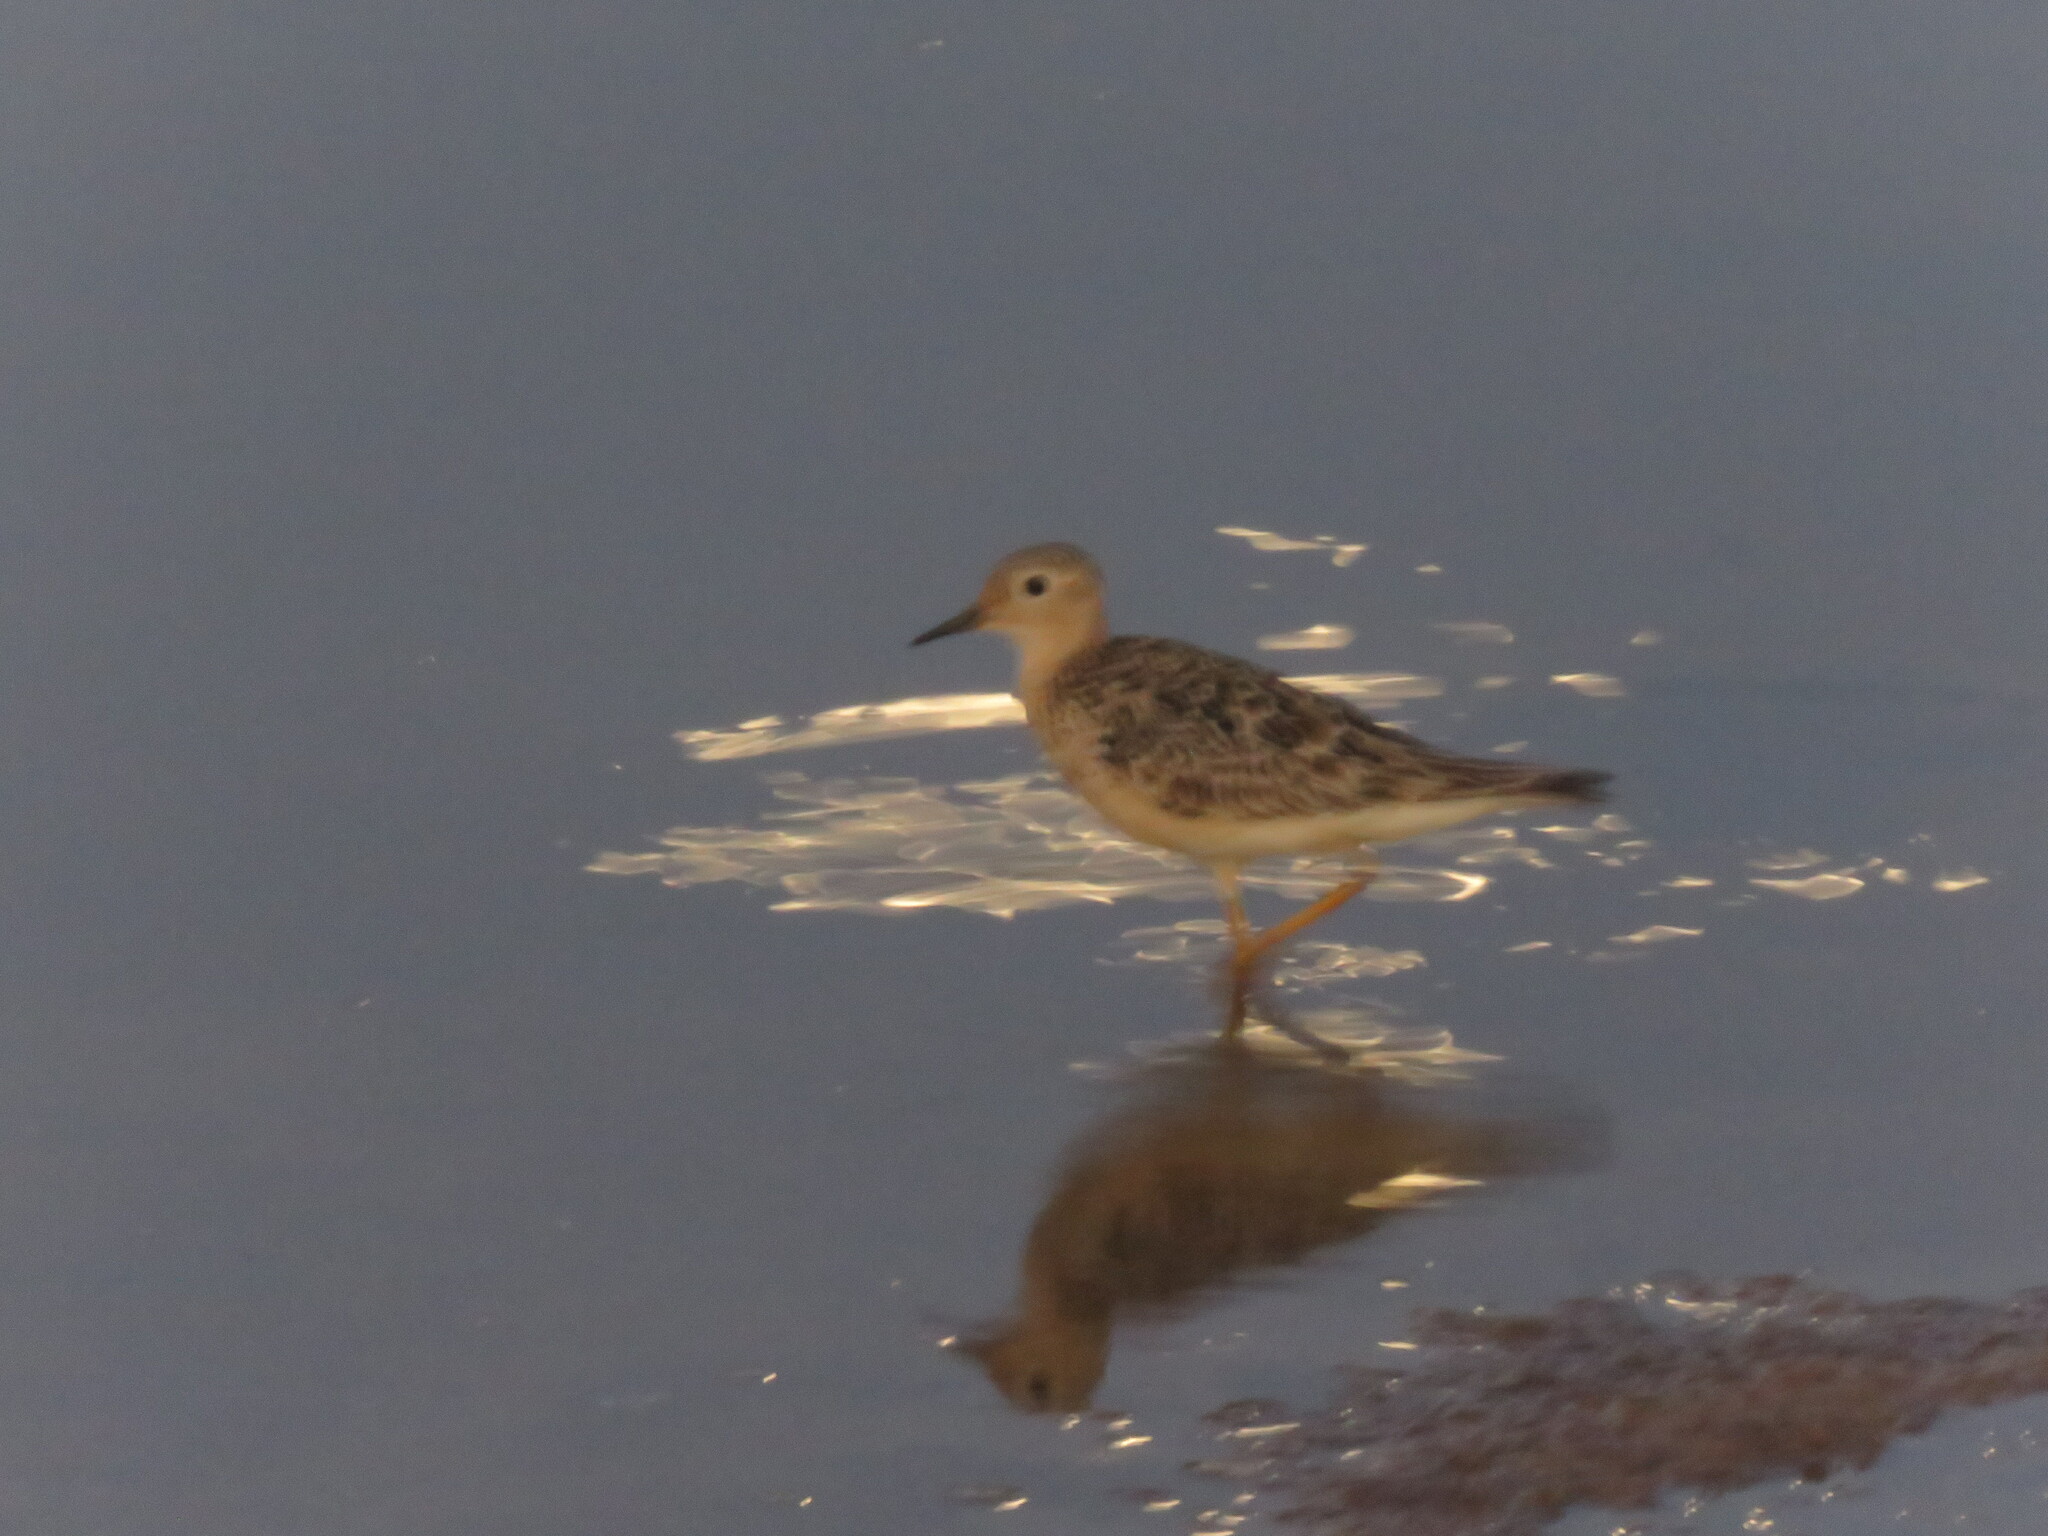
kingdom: Animalia
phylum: Chordata
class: Aves
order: Charadriiformes
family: Scolopacidae
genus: Calidris
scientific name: Calidris subruficollis
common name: Buff-breasted sandpiper
